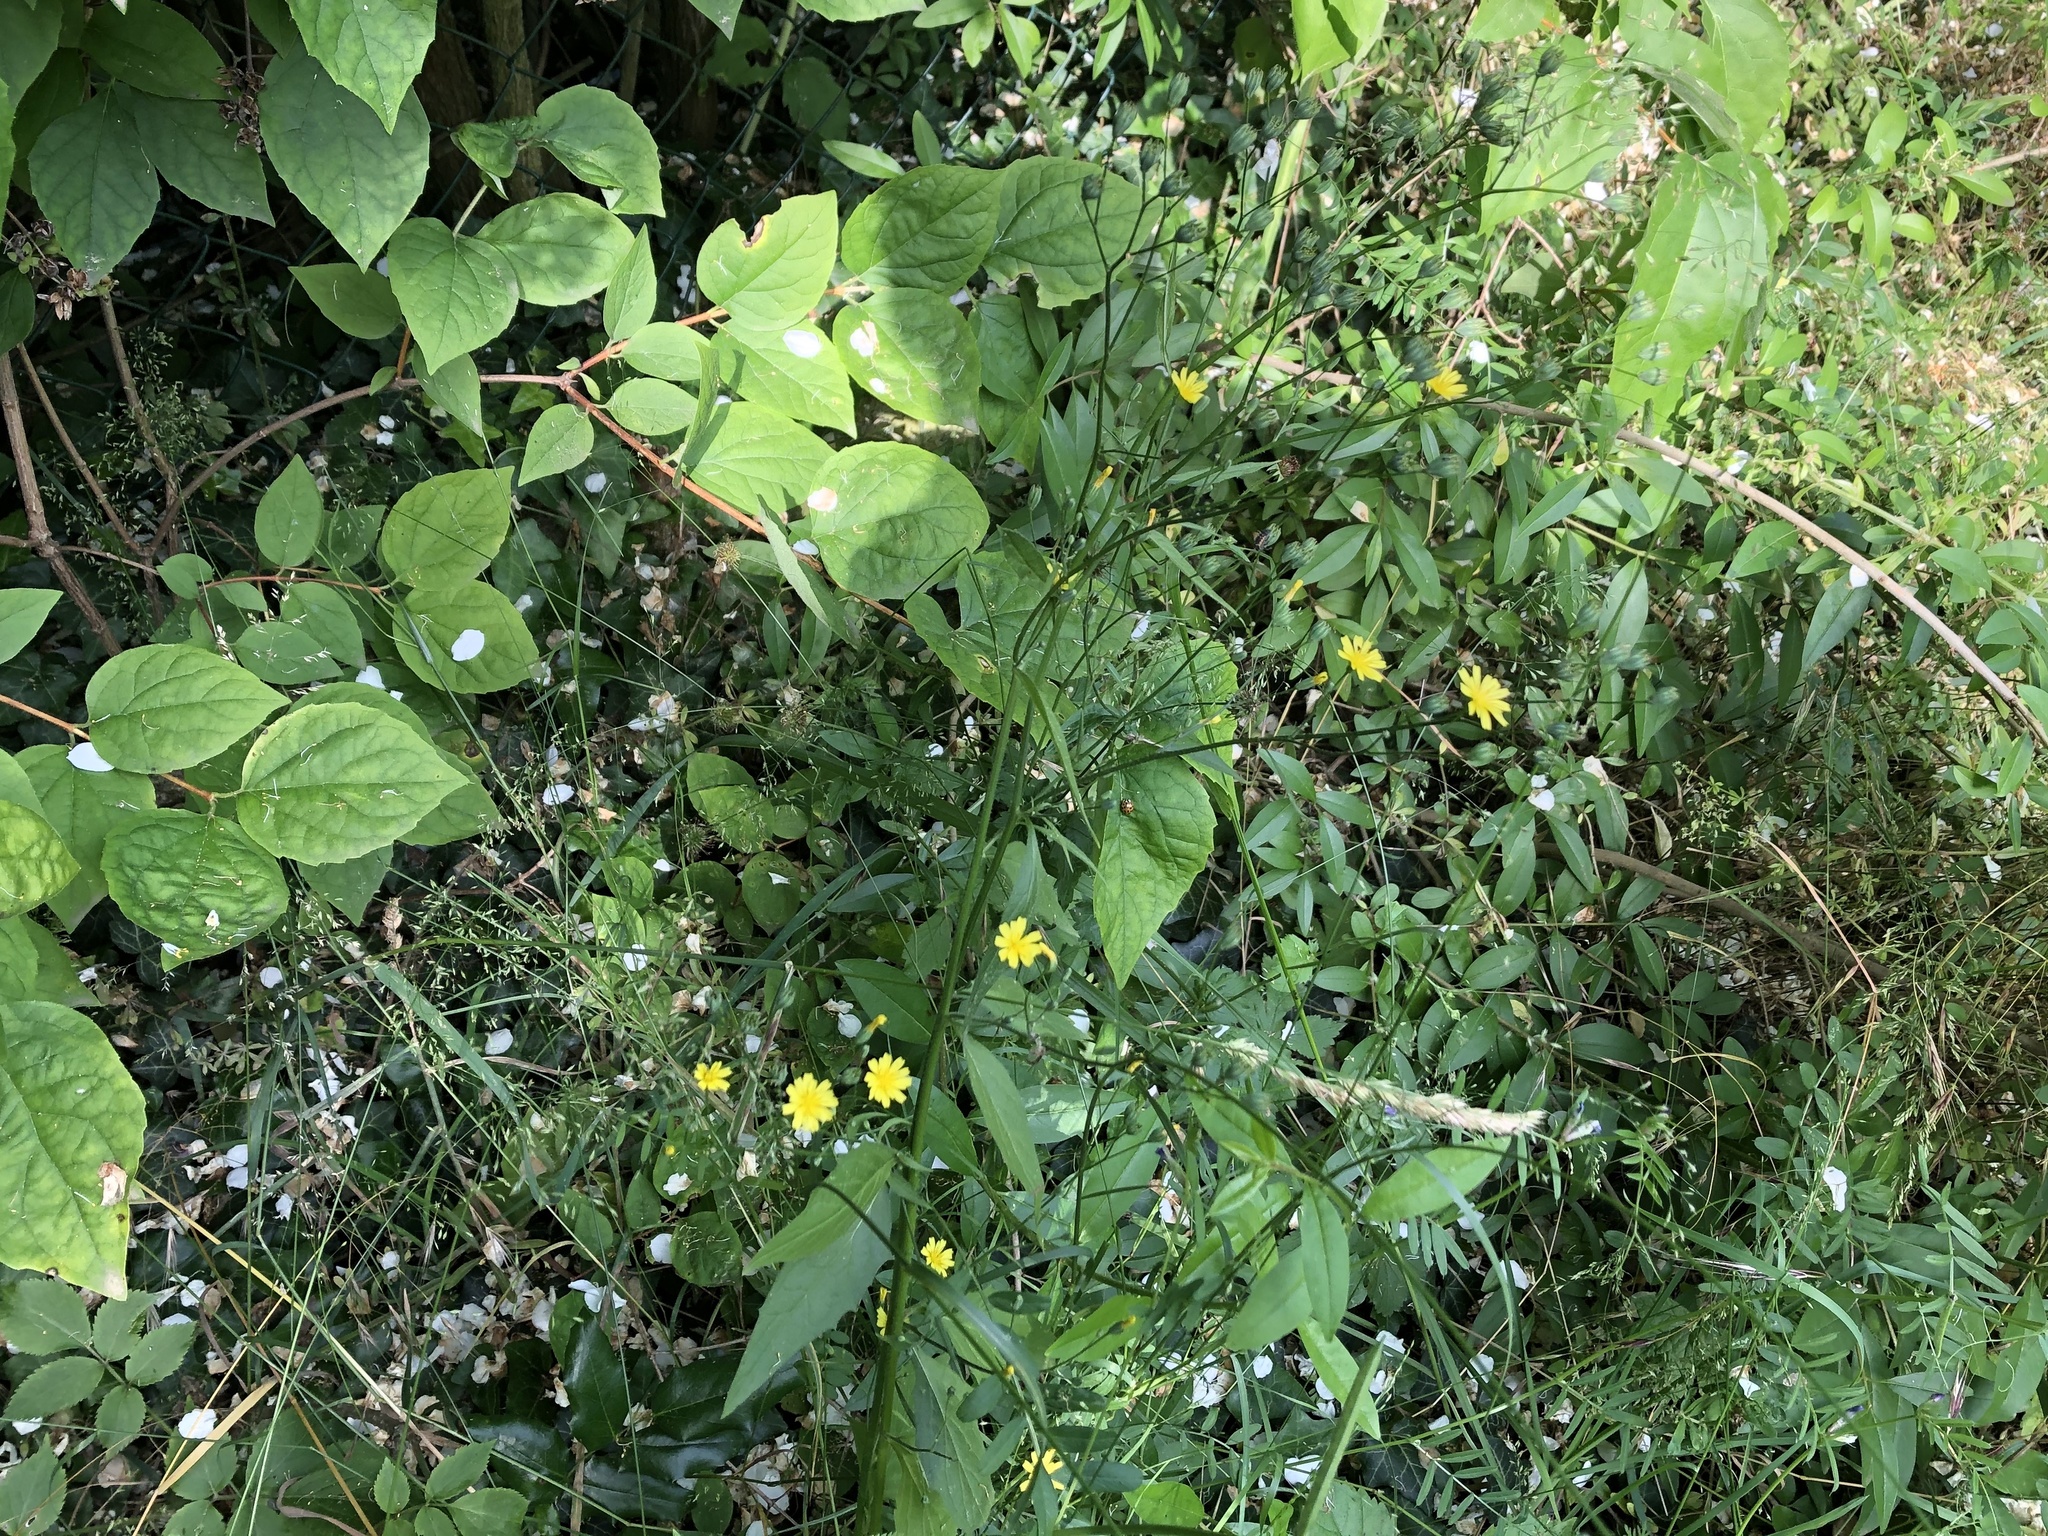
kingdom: Plantae
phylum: Tracheophyta
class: Magnoliopsida
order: Asterales
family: Asteraceae
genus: Lapsana
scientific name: Lapsana communis
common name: Nipplewort
